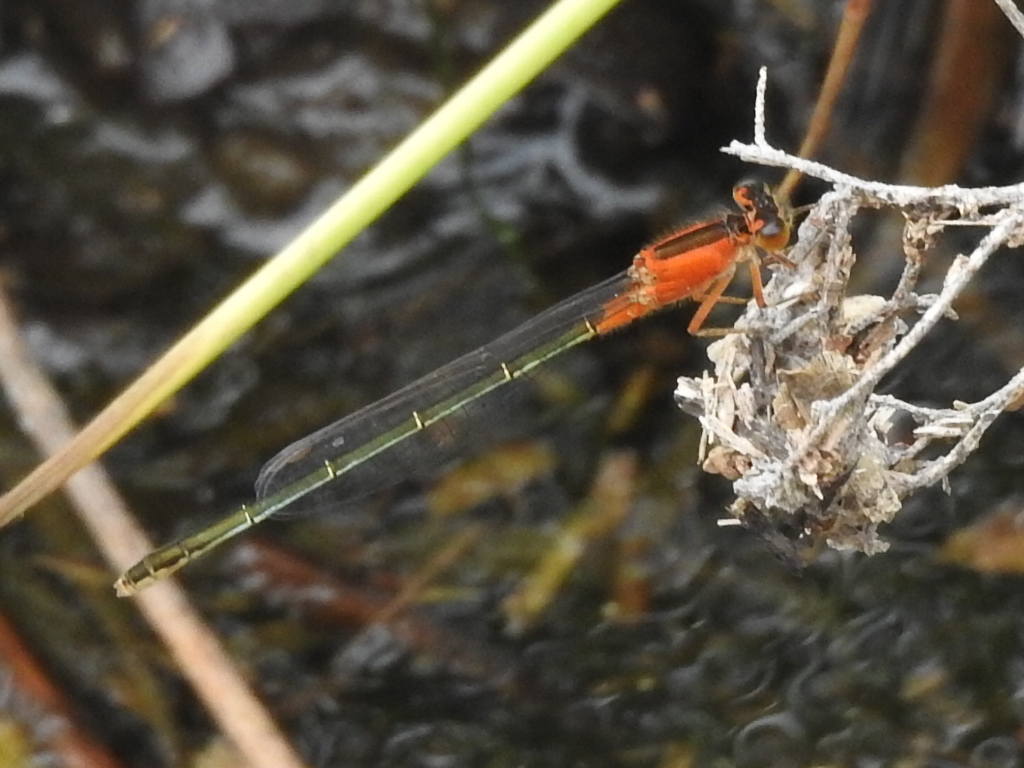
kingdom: Animalia
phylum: Arthropoda
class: Insecta
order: Odonata
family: Coenagrionidae
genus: Ischnura
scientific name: Ischnura ramburii
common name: Rambur's forktail
